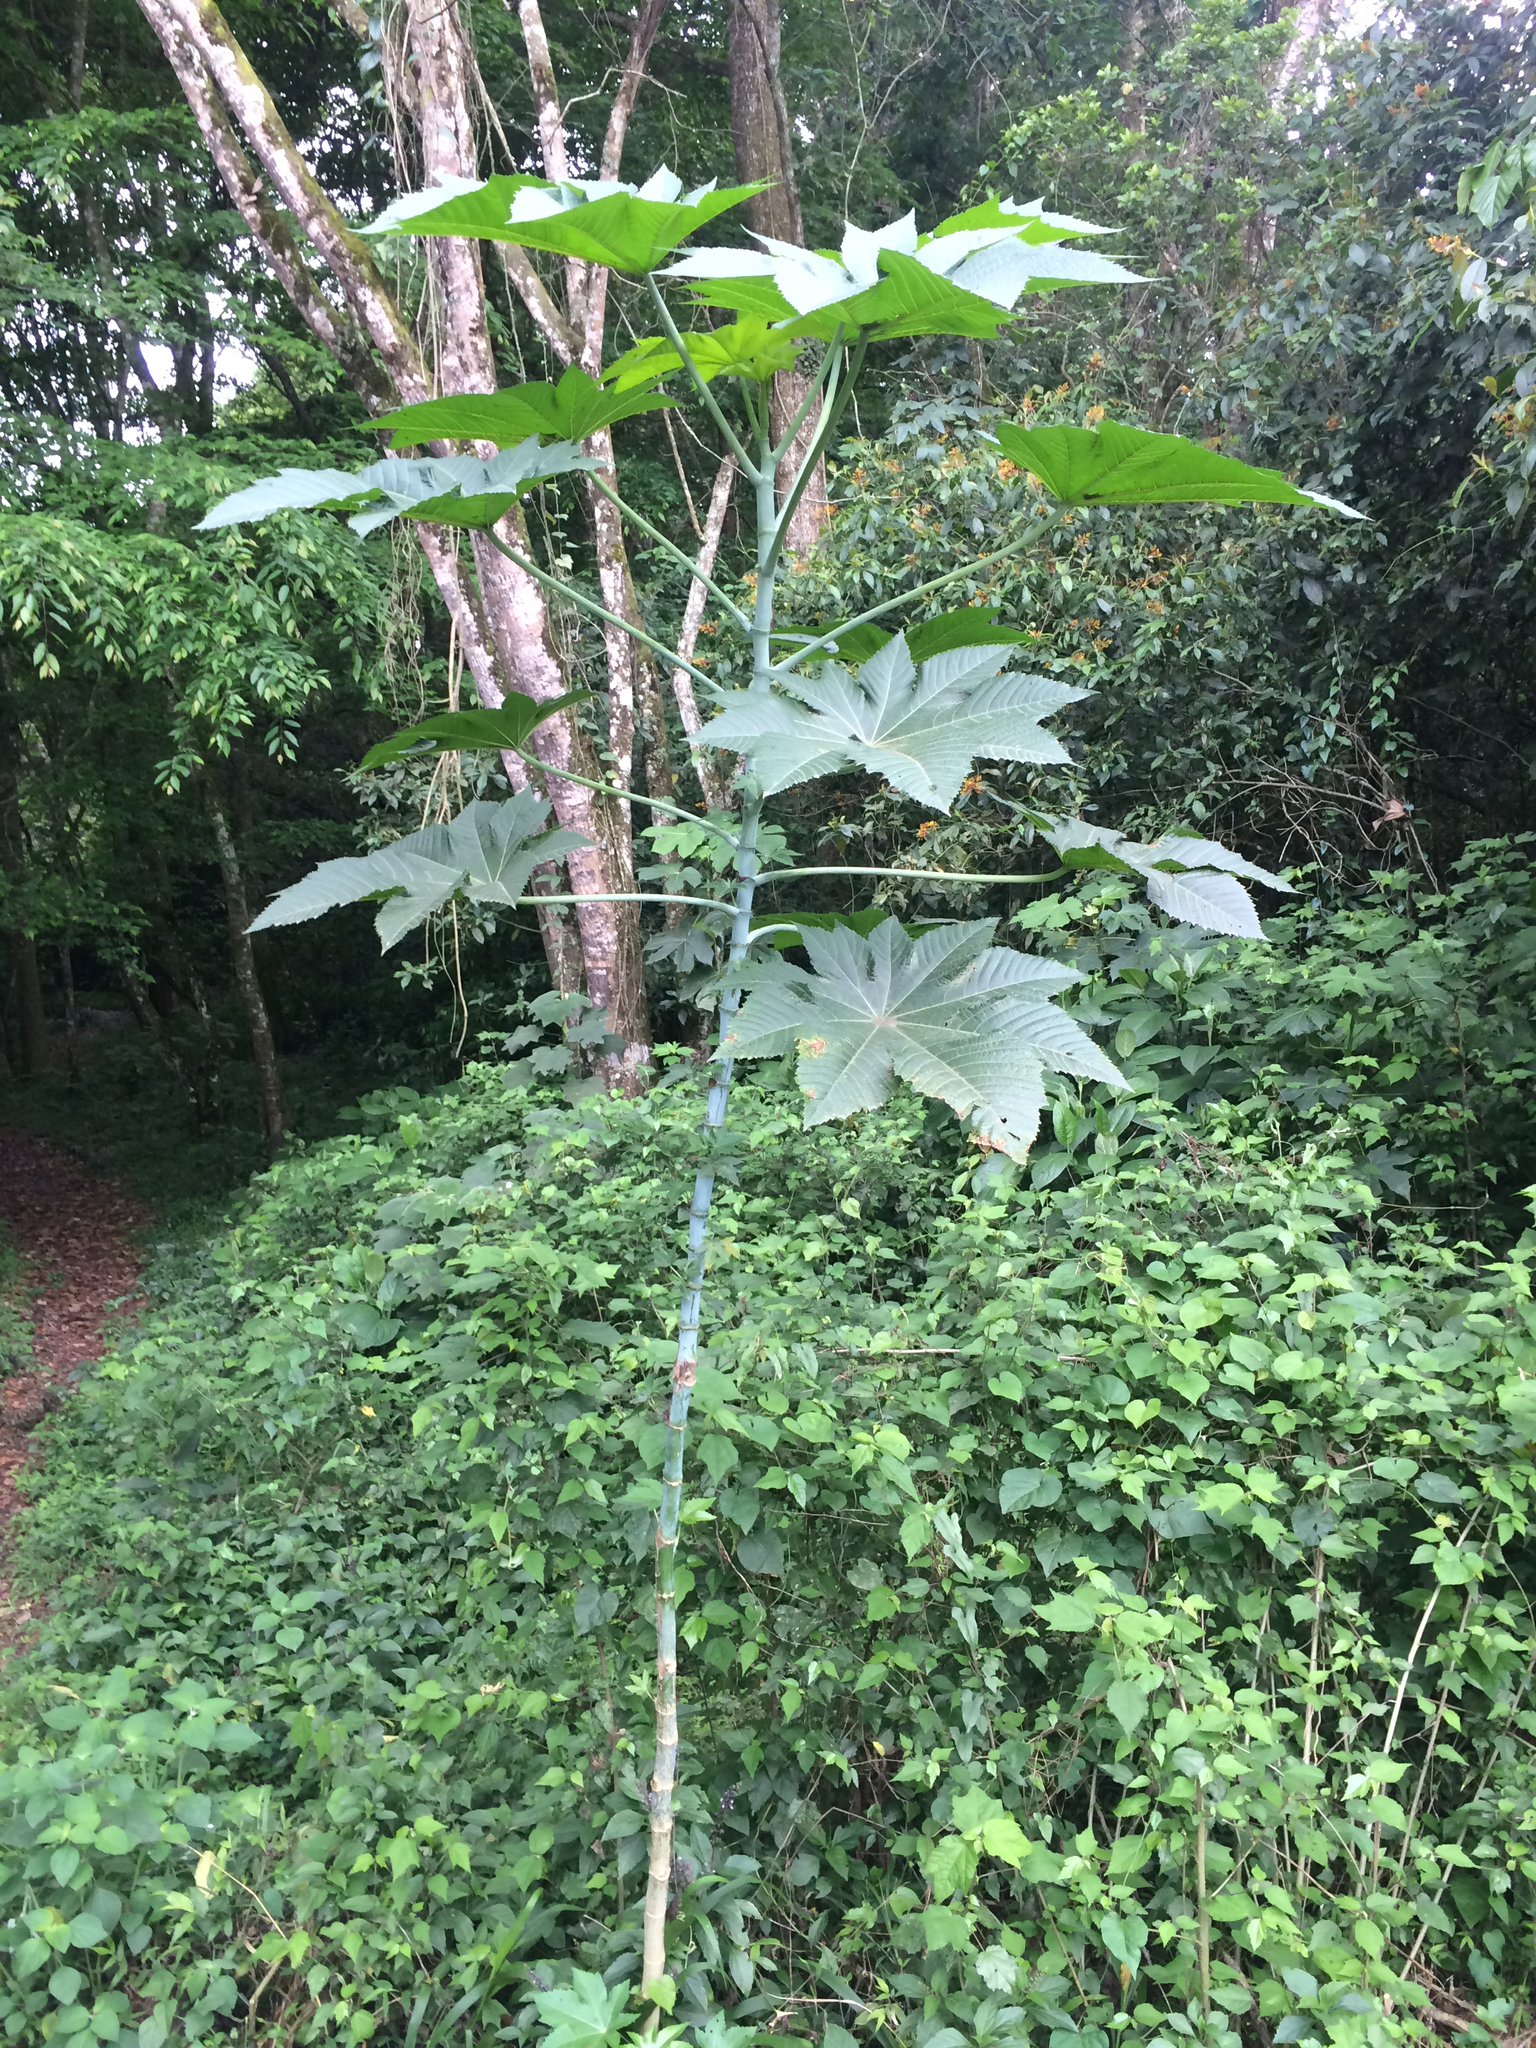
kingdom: Plantae
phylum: Tracheophyta
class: Magnoliopsida
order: Malpighiales
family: Euphorbiaceae
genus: Ricinus
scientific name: Ricinus communis
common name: Castor-oil-plant
